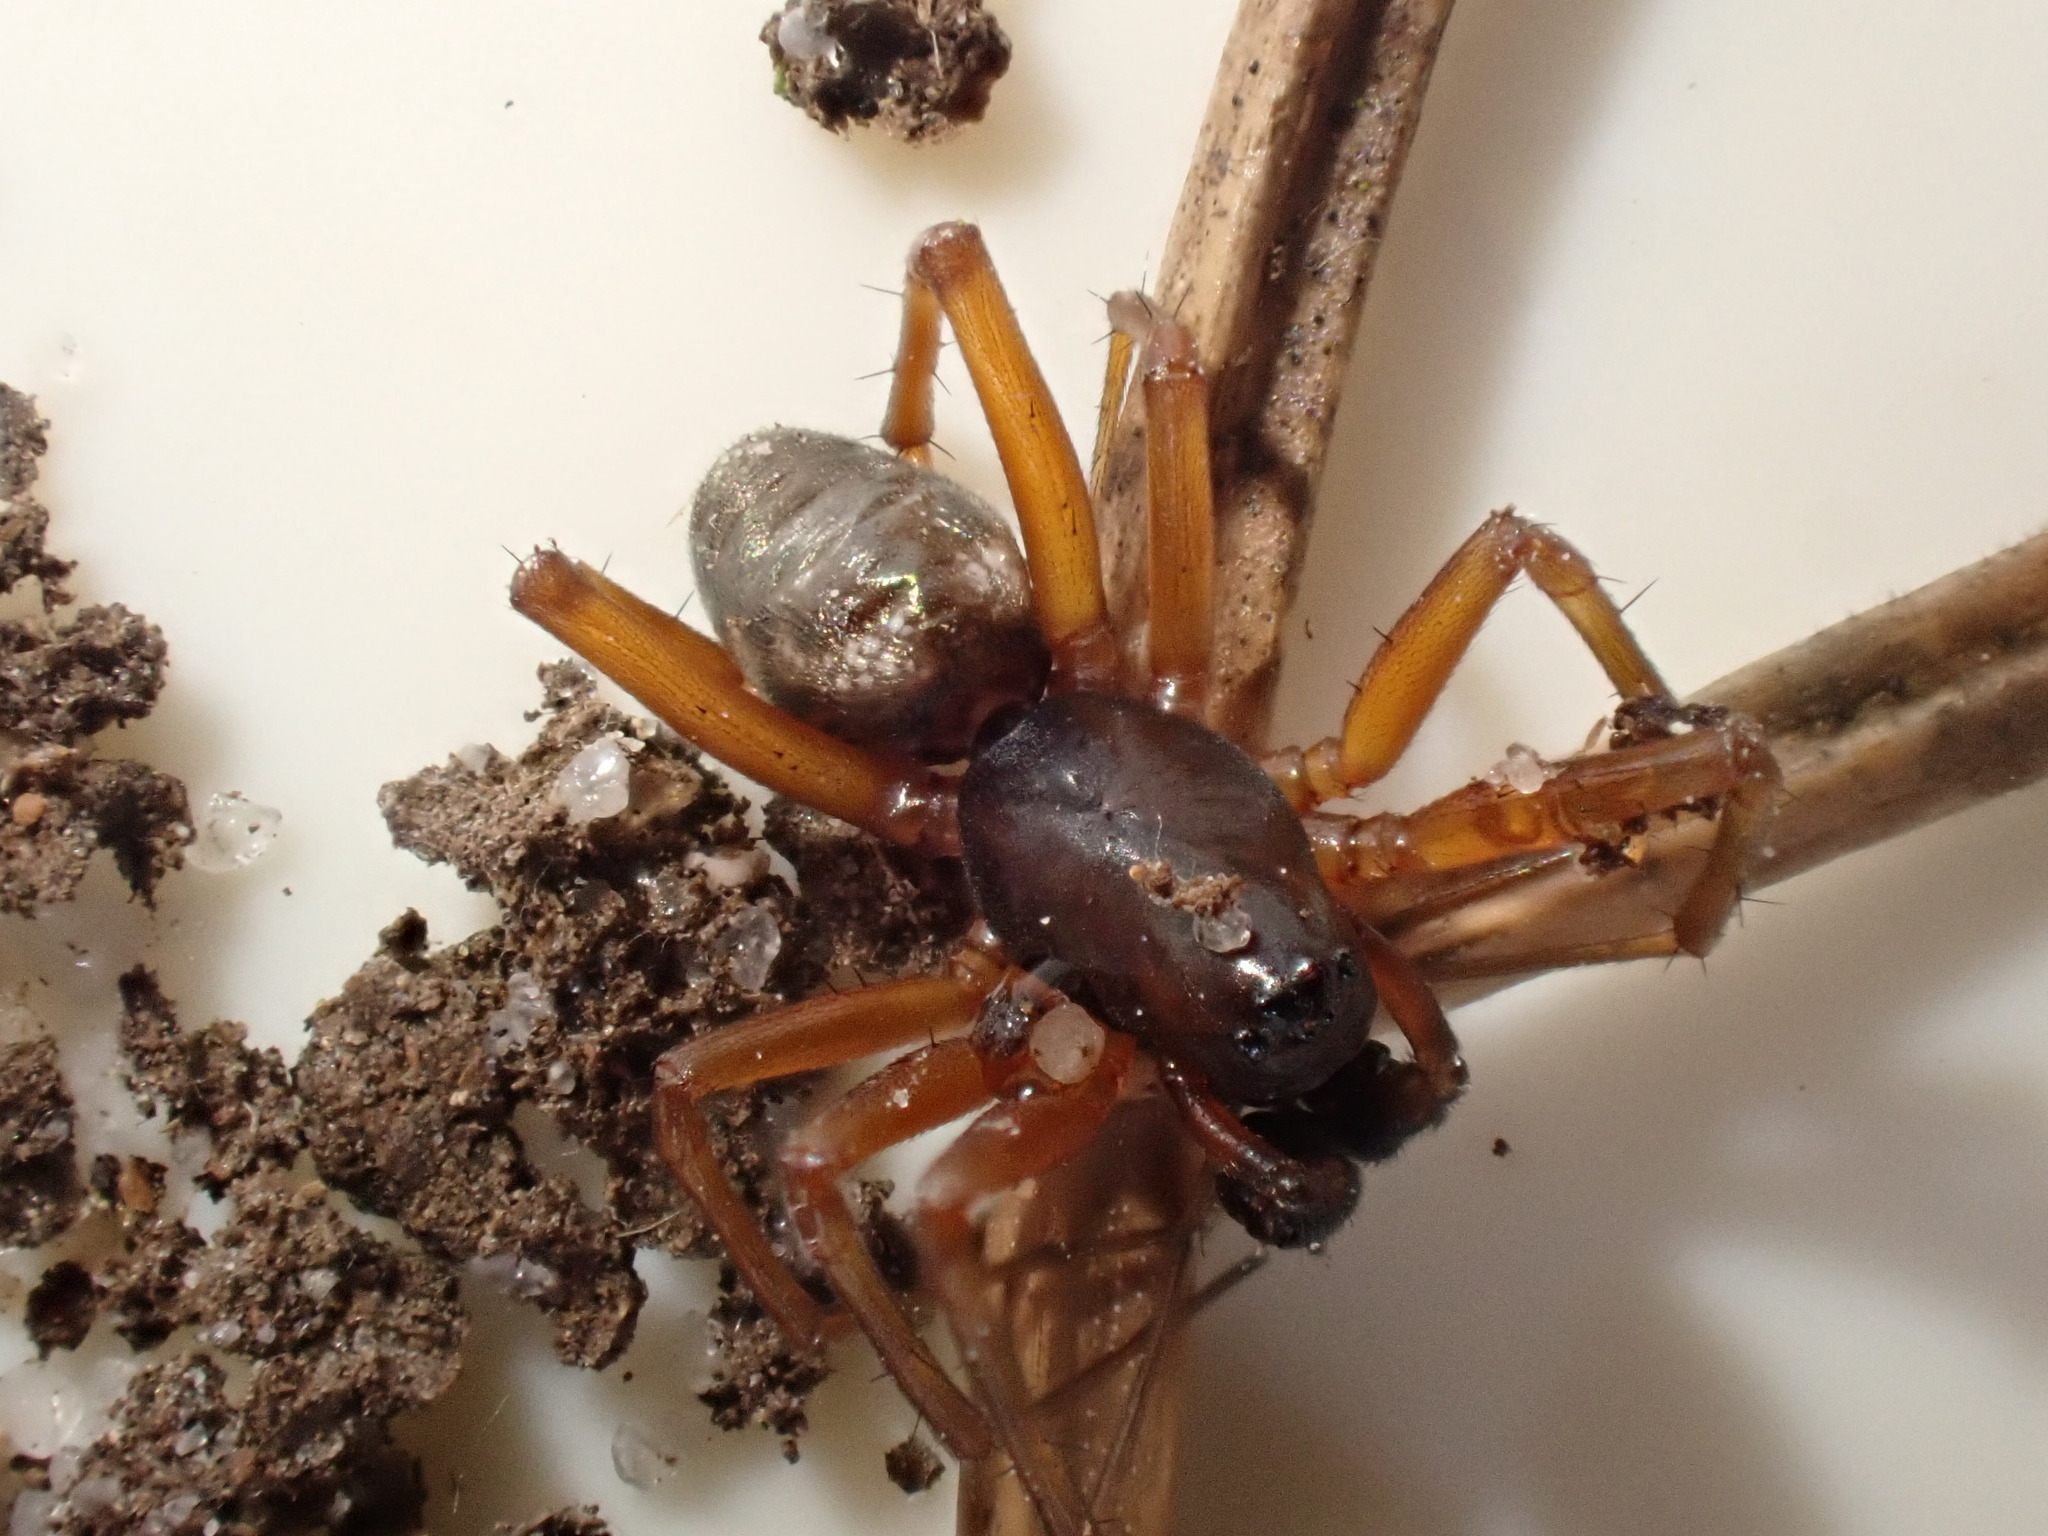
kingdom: Animalia
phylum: Arthropoda
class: Arachnida
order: Araneae
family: Linyphiidae
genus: Neriene
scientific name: Neriene clathrata
